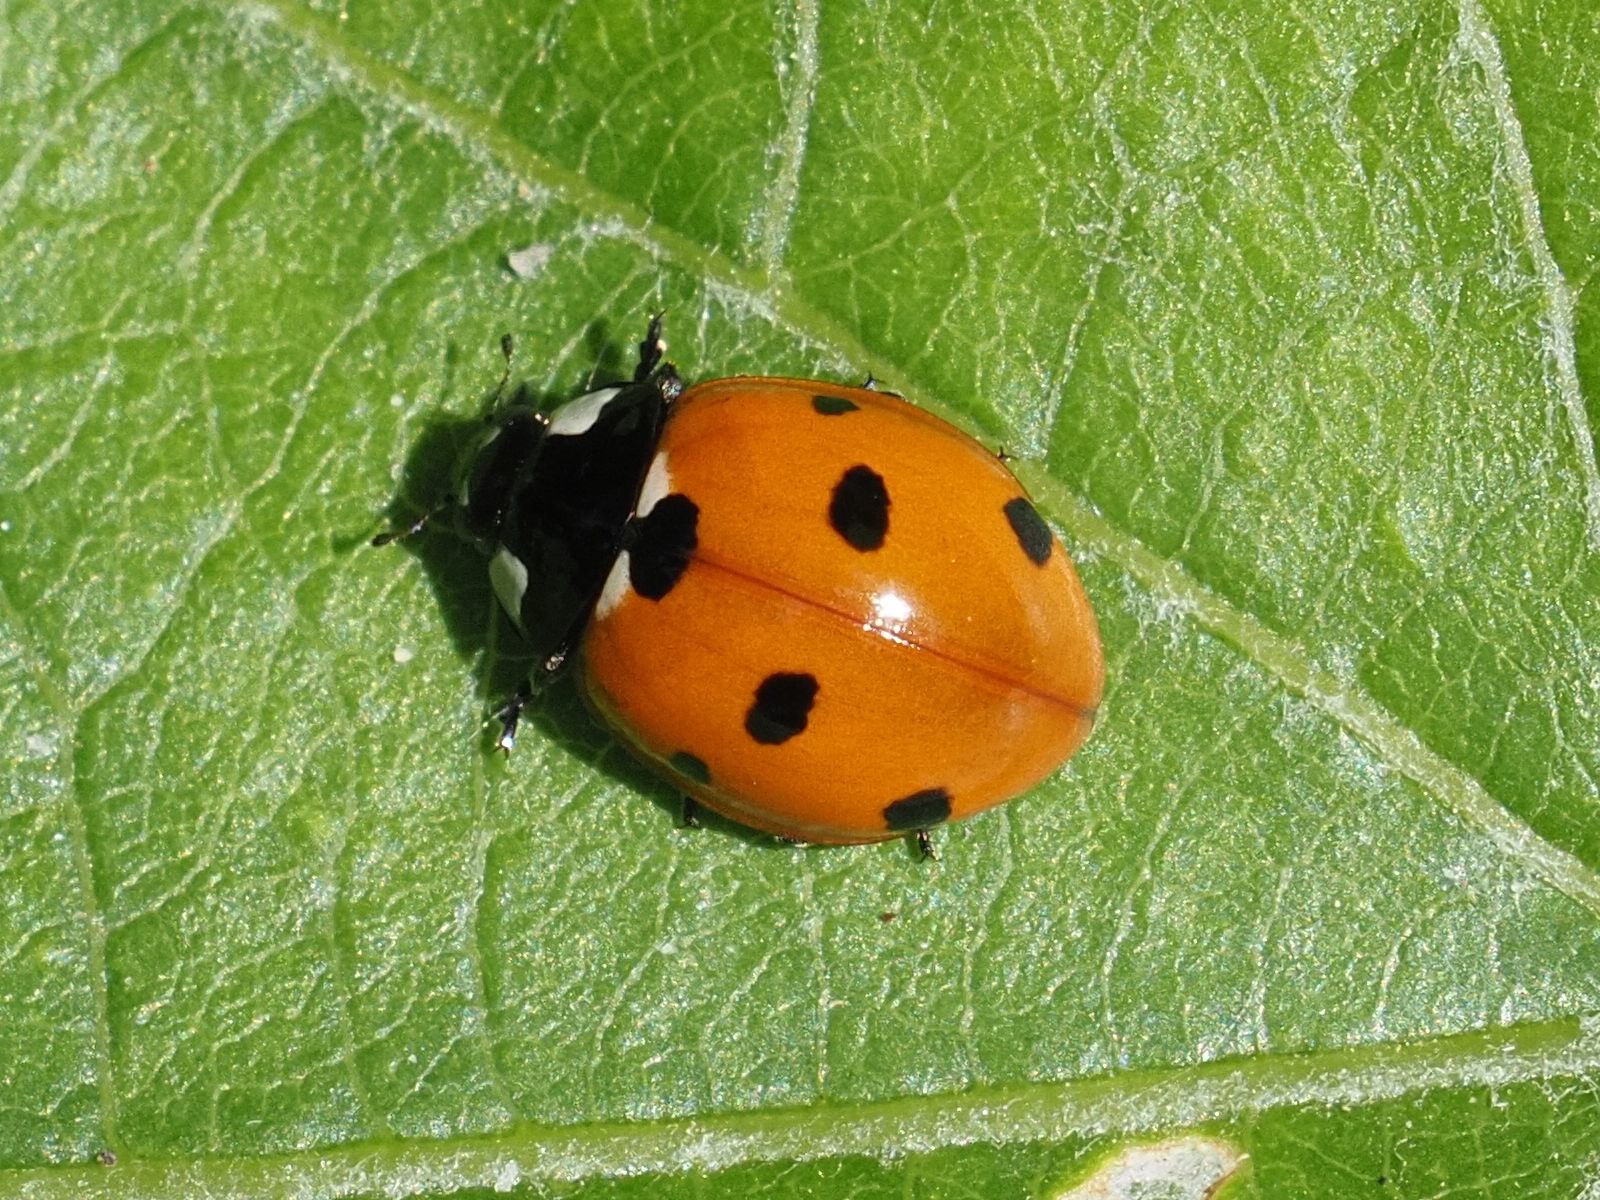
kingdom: Animalia
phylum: Arthropoda
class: Insecta
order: Coleoptera
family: Coccinellidae
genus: Coccinella
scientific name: Coccinella septempunctata
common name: Sevenspotted lady beetle
